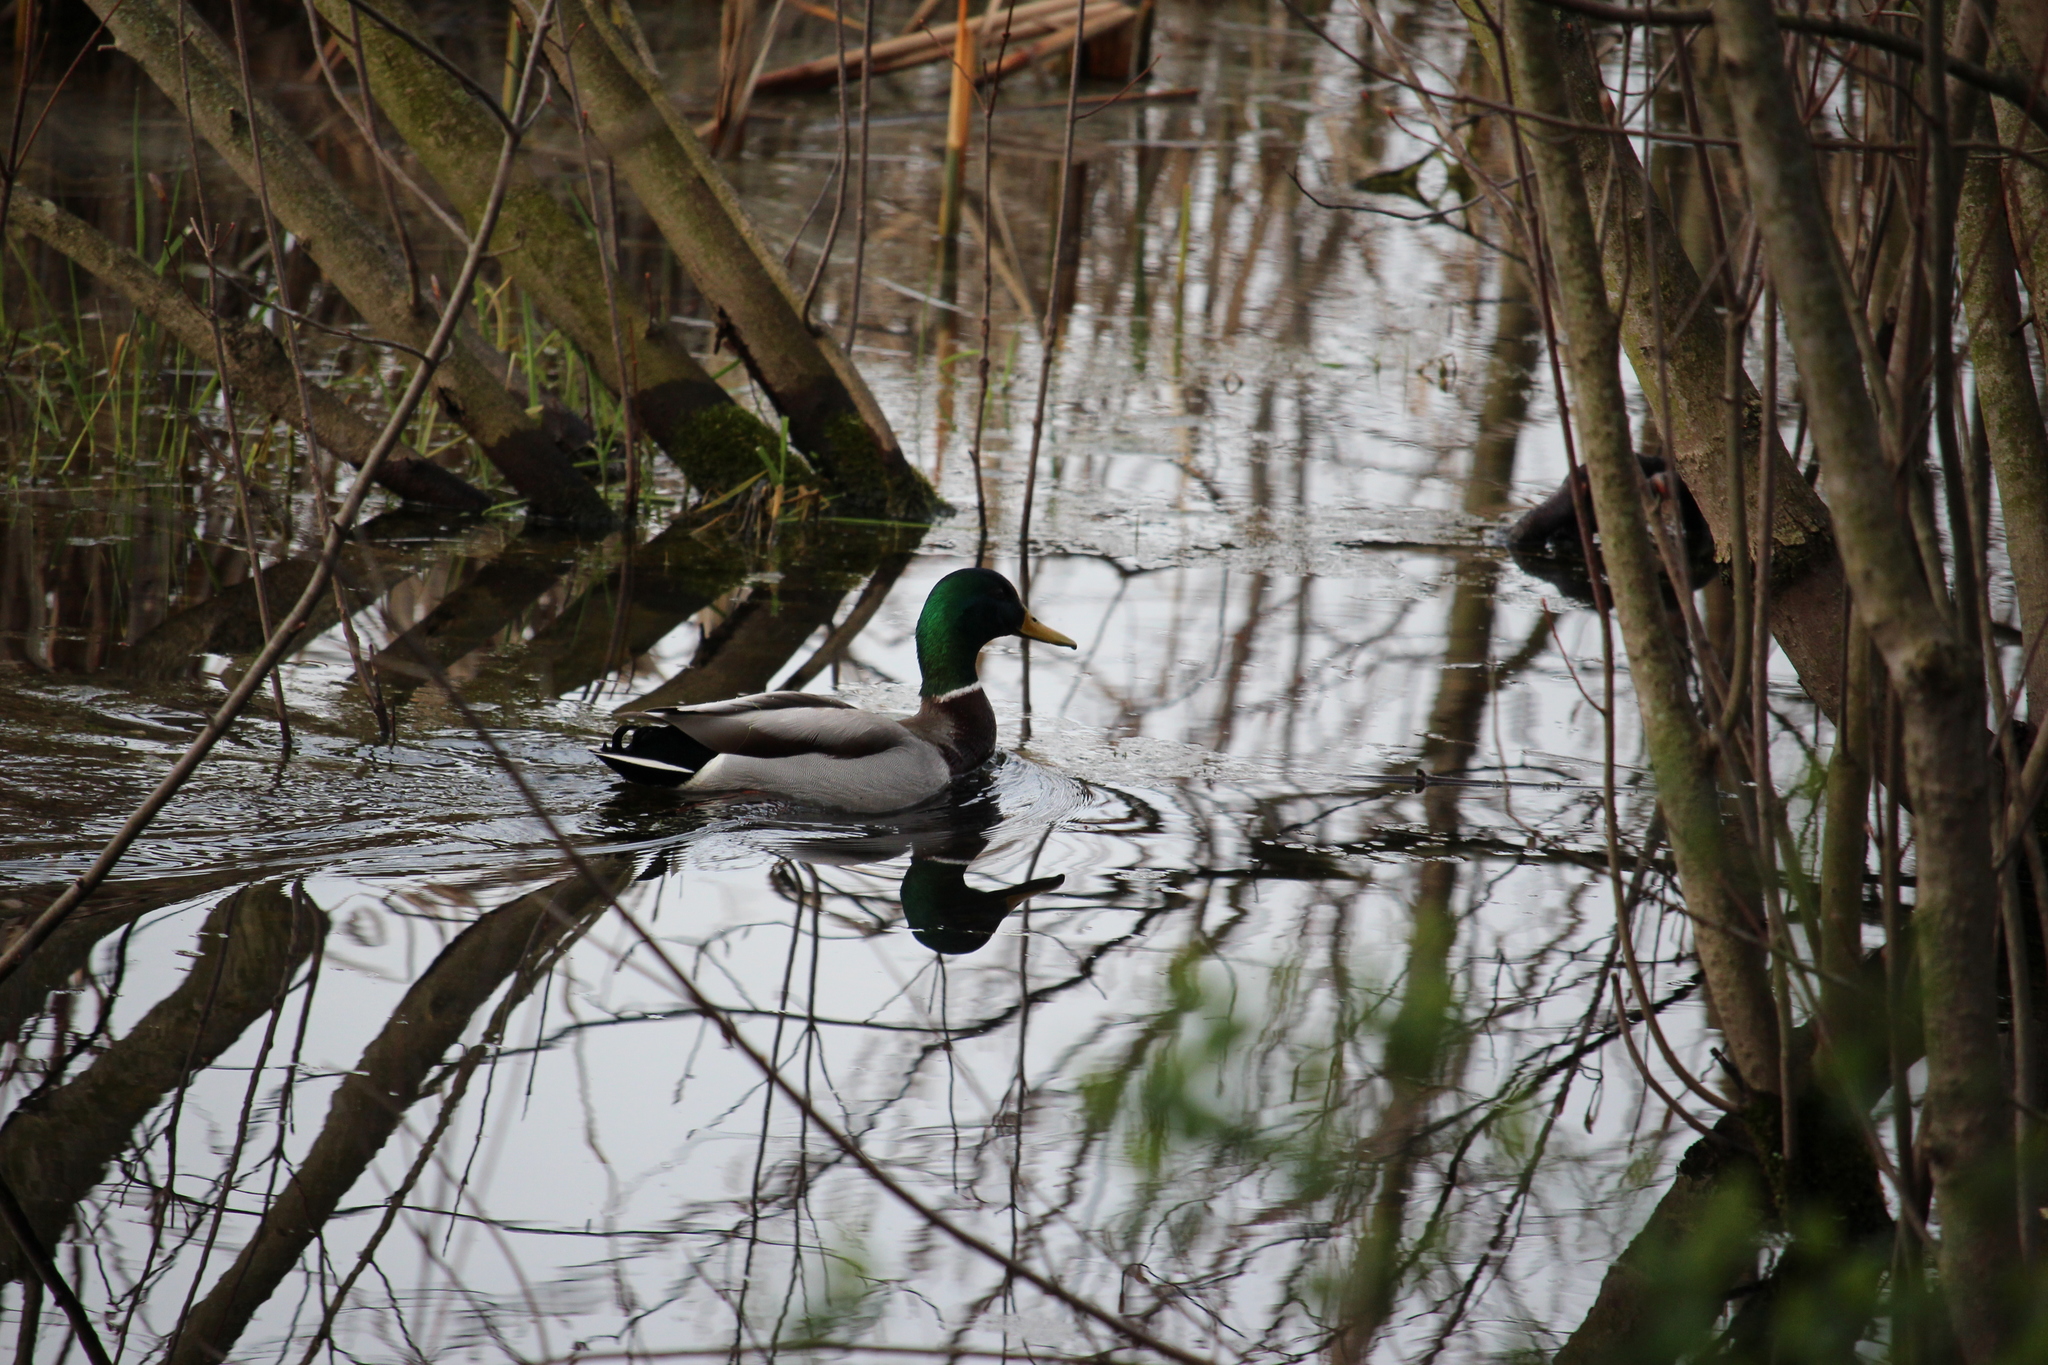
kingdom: Animalia
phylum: Chordata
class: Aves
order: Anseriformes
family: Anatidae
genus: Anas
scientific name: Anas platyrhynchos
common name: Mallard
